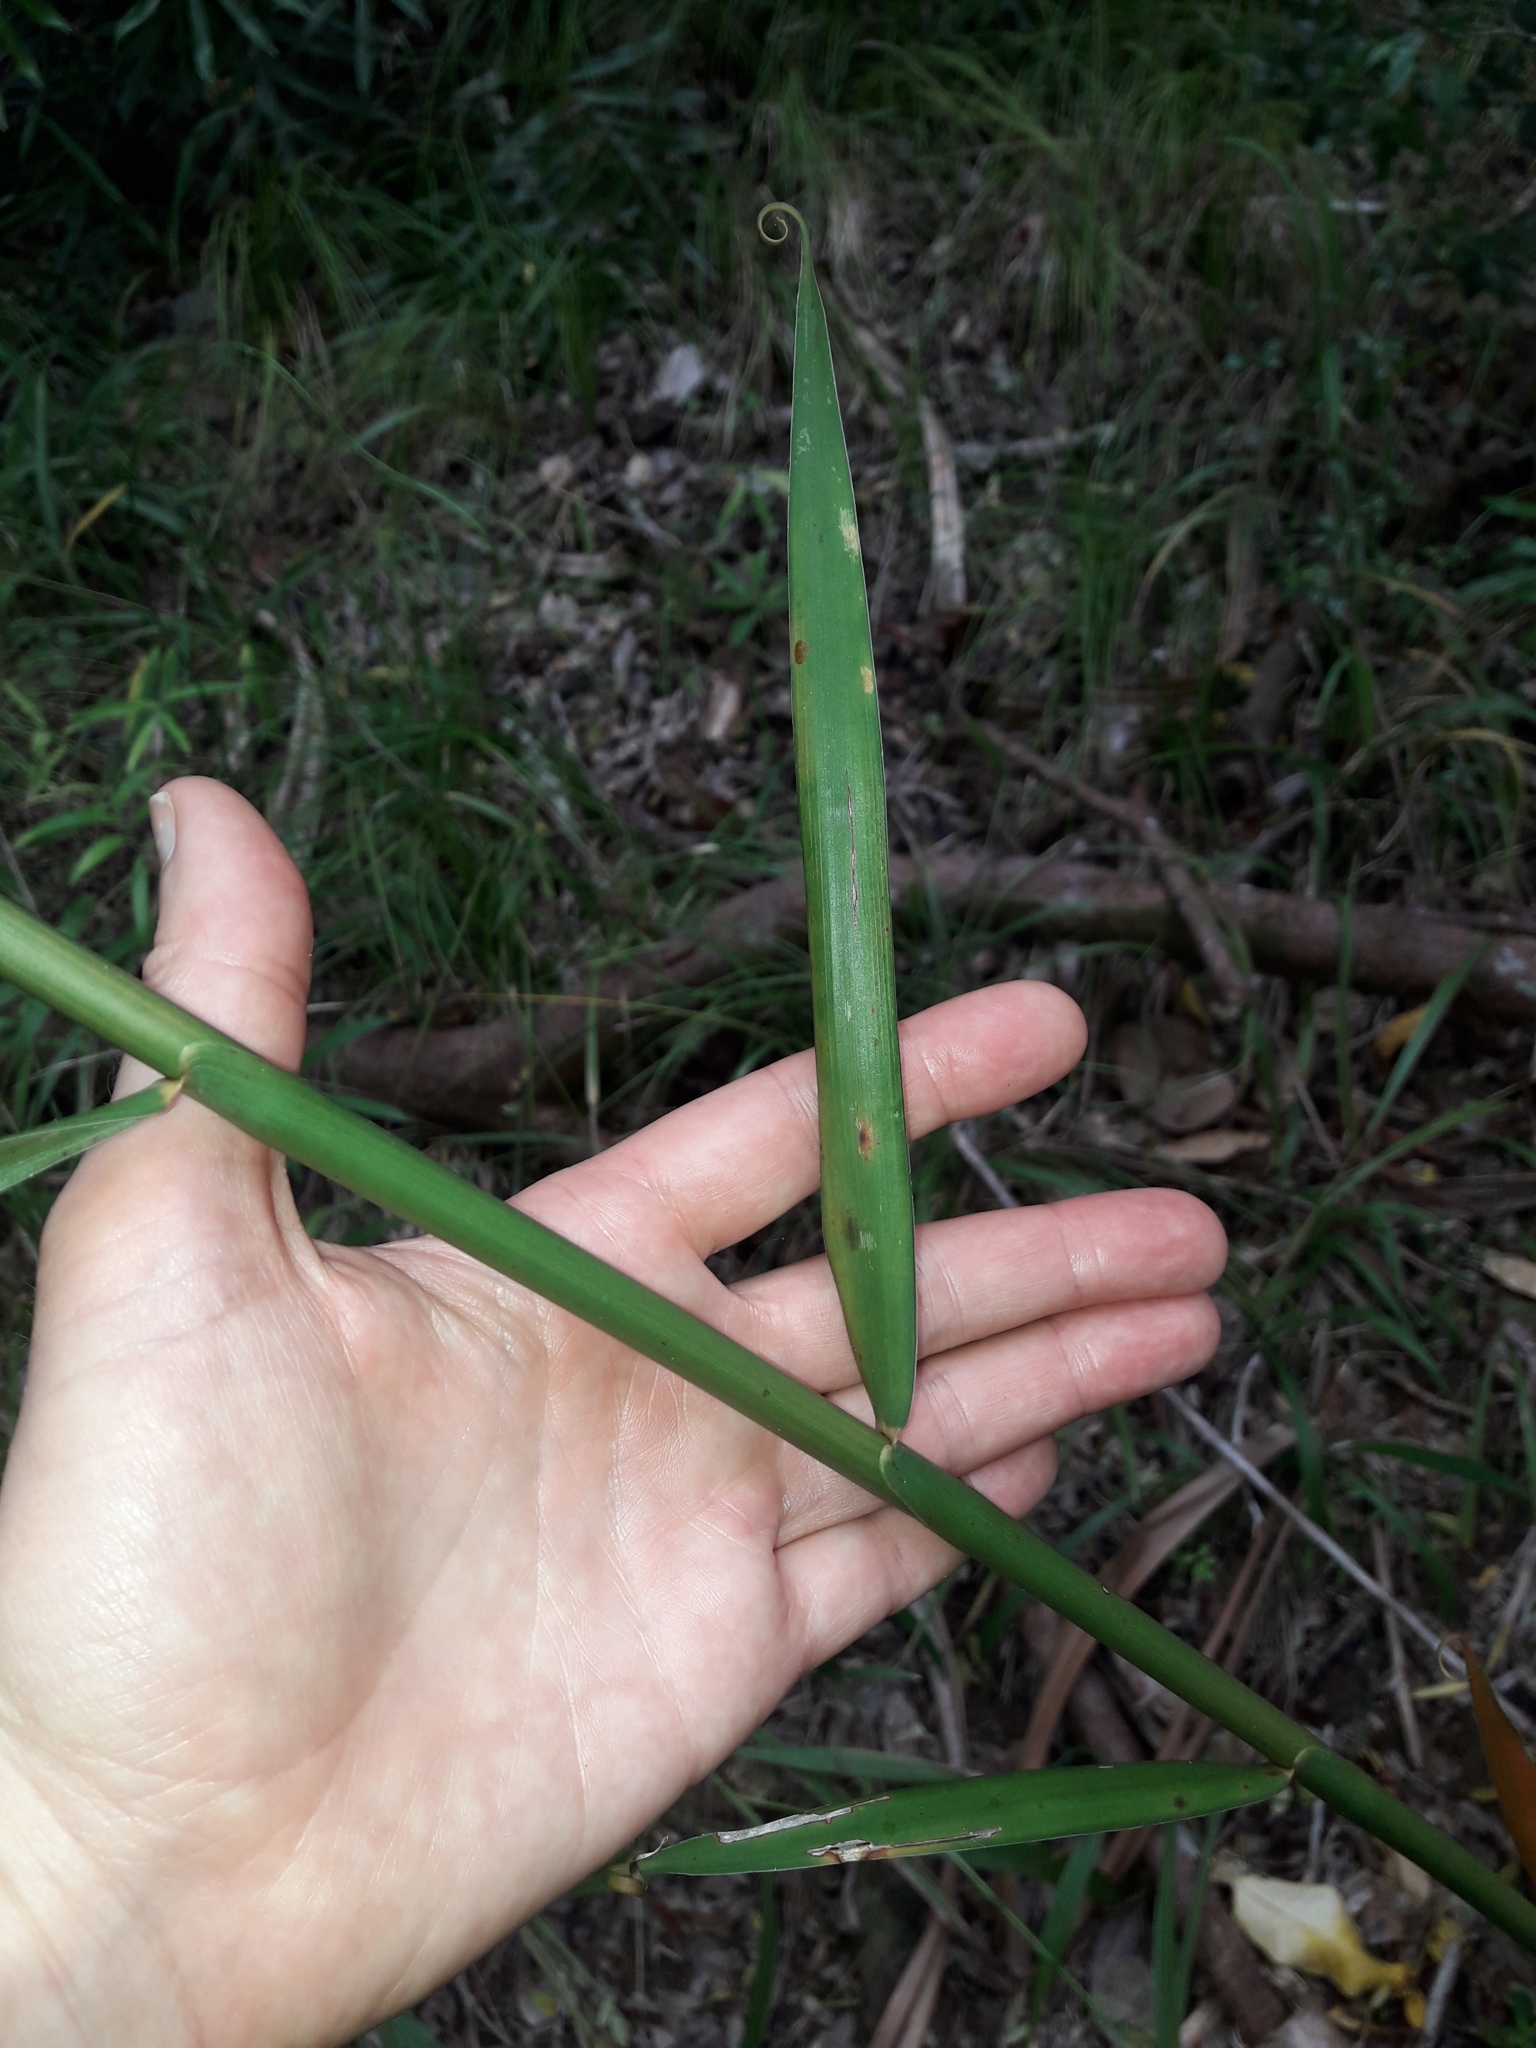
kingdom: Plantae
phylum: Tracheophyta
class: Liliopsida
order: Poales
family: Flagellariaceae
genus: Flagellaria
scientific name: Flagellaria indica
